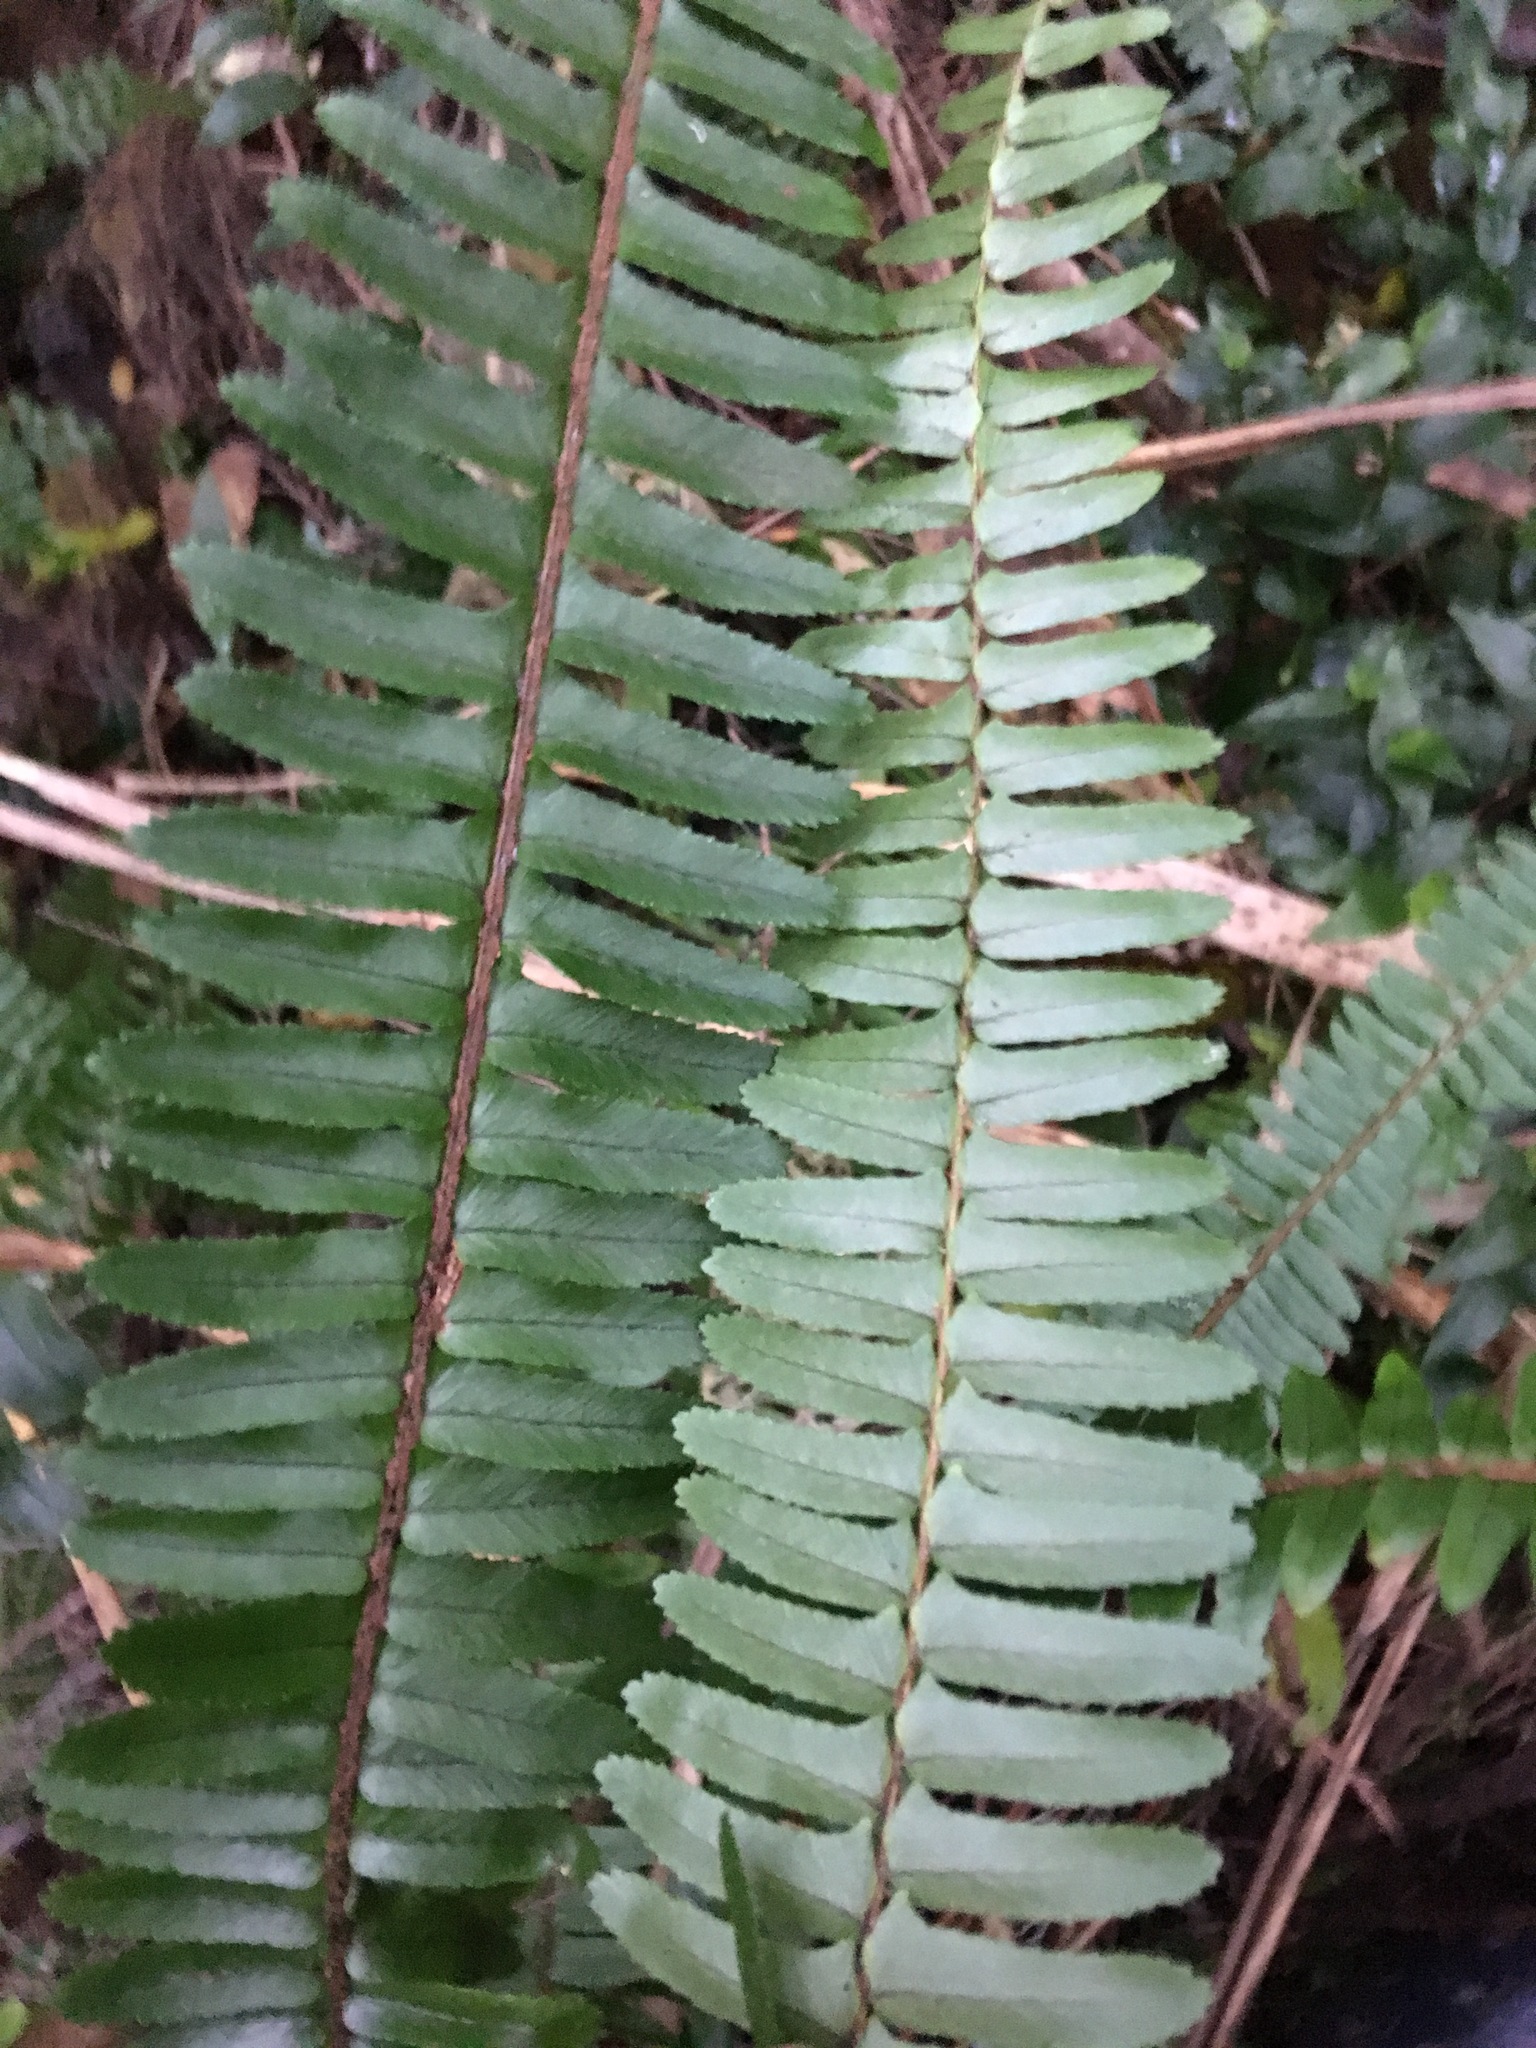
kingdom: Plantae
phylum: Tracheophyta
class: Polypodiopsida
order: Polypodiales
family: Nephrolepidaceae
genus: Nephrolepis
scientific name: Nephrolepis cordifolia
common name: Narrow swordfern
